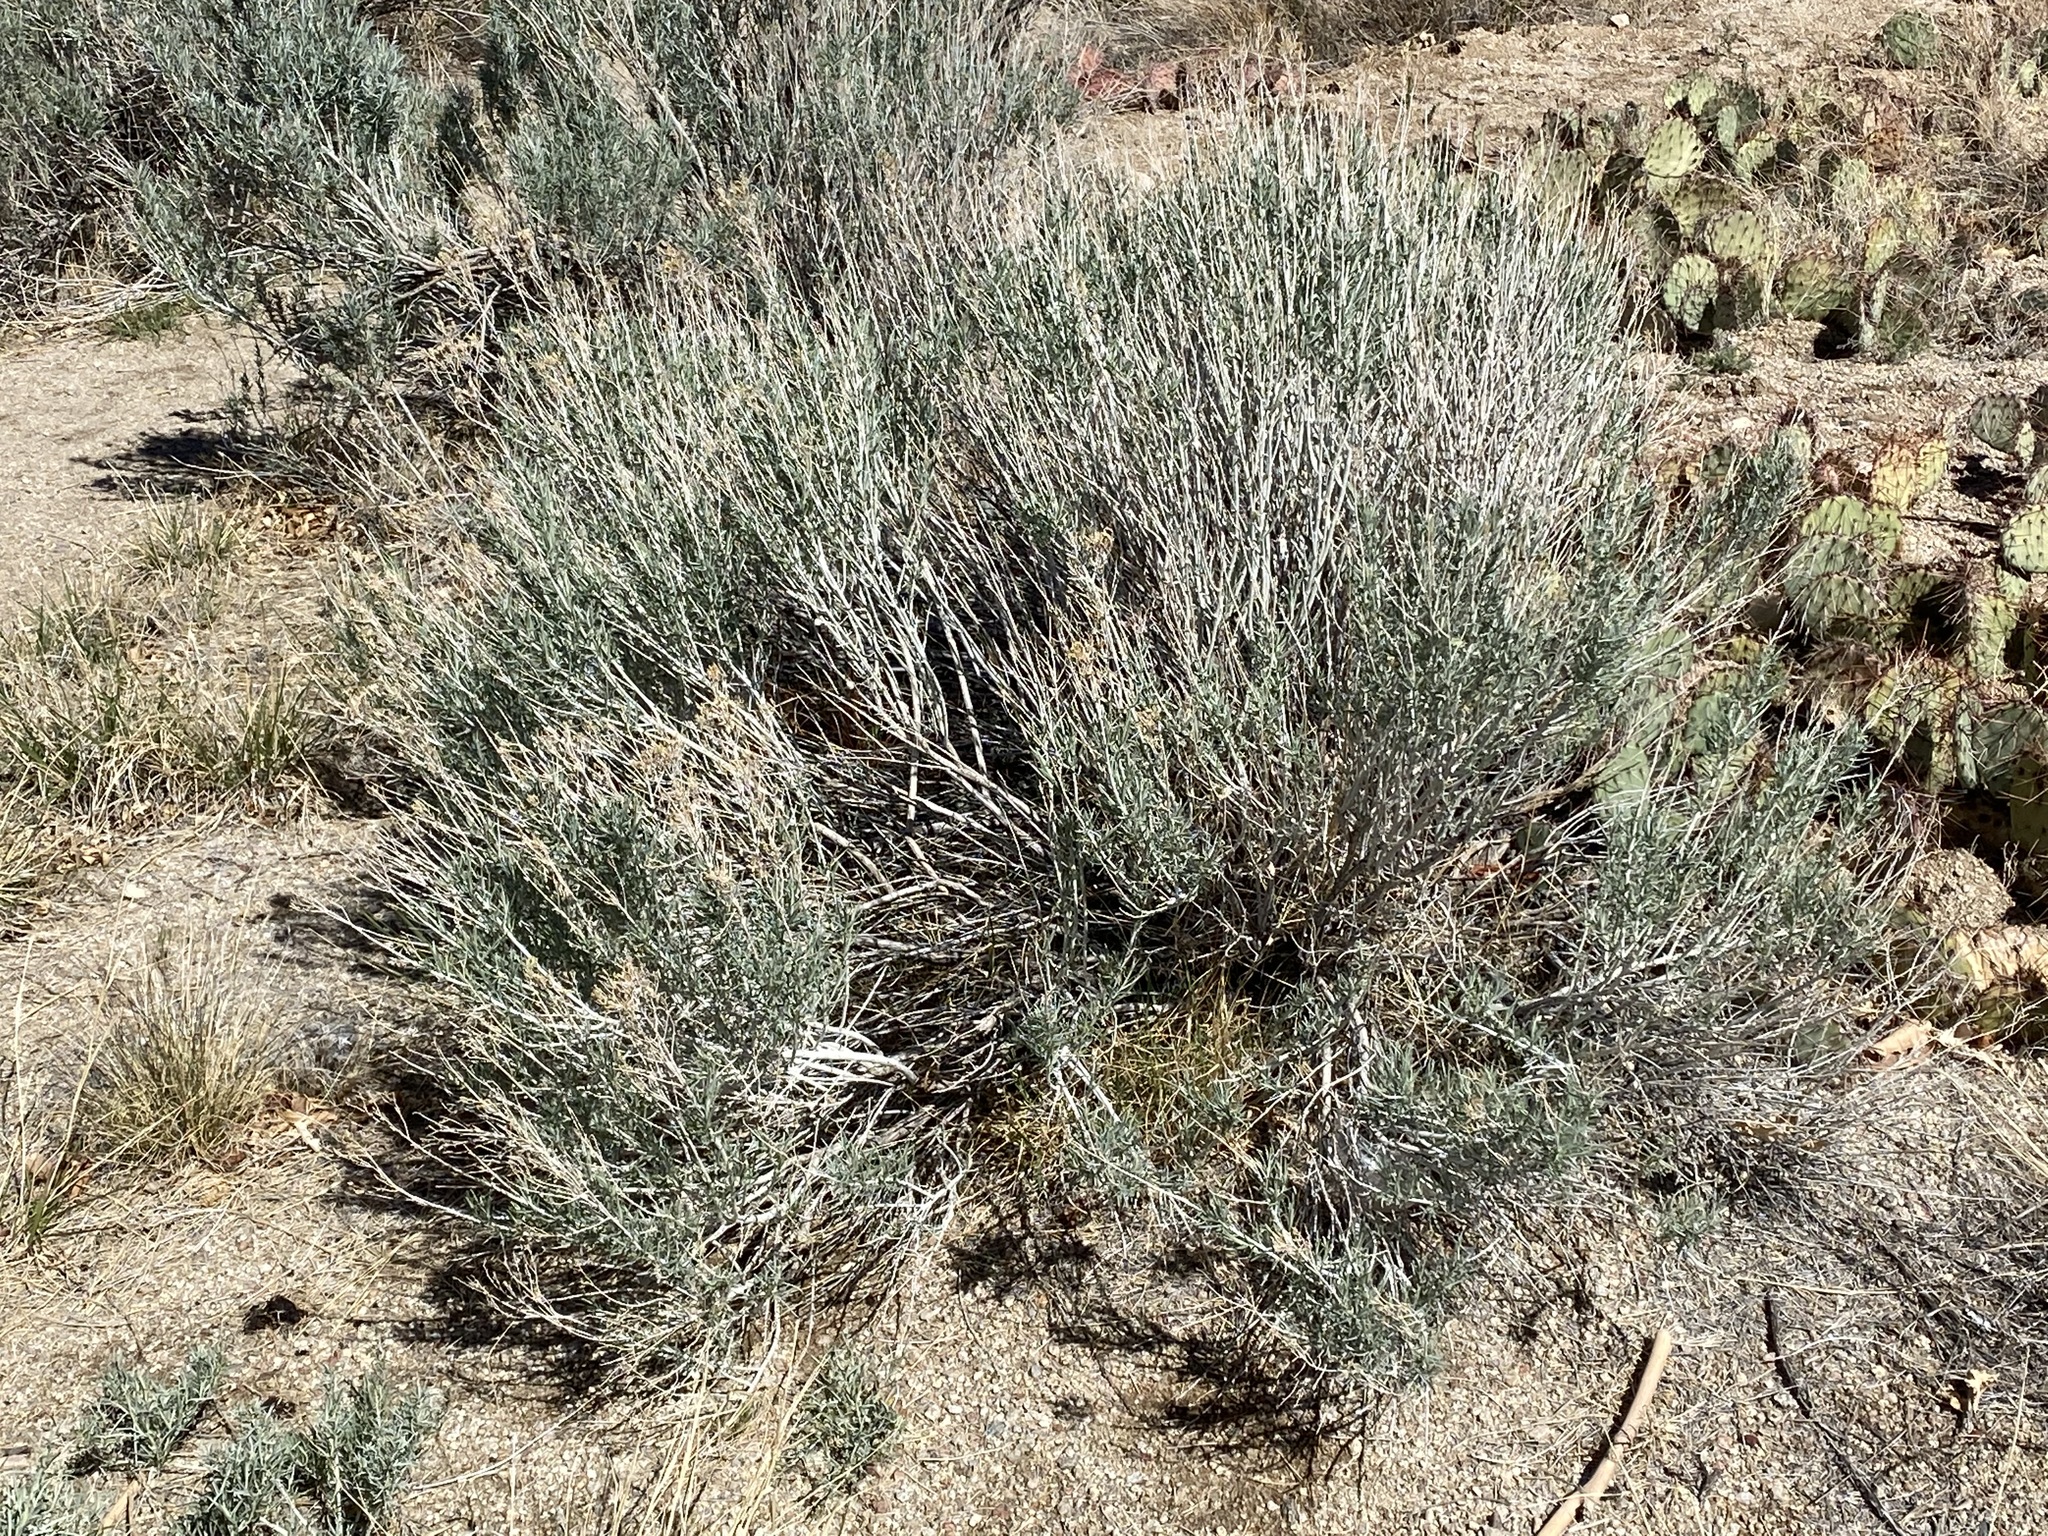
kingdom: Plantae
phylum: Tracheophyta
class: Magnoliopsida
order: Asterales
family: Asteraceae
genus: Ericameria
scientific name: Ericameria nauseosa
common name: Rubber rabbitbrush
